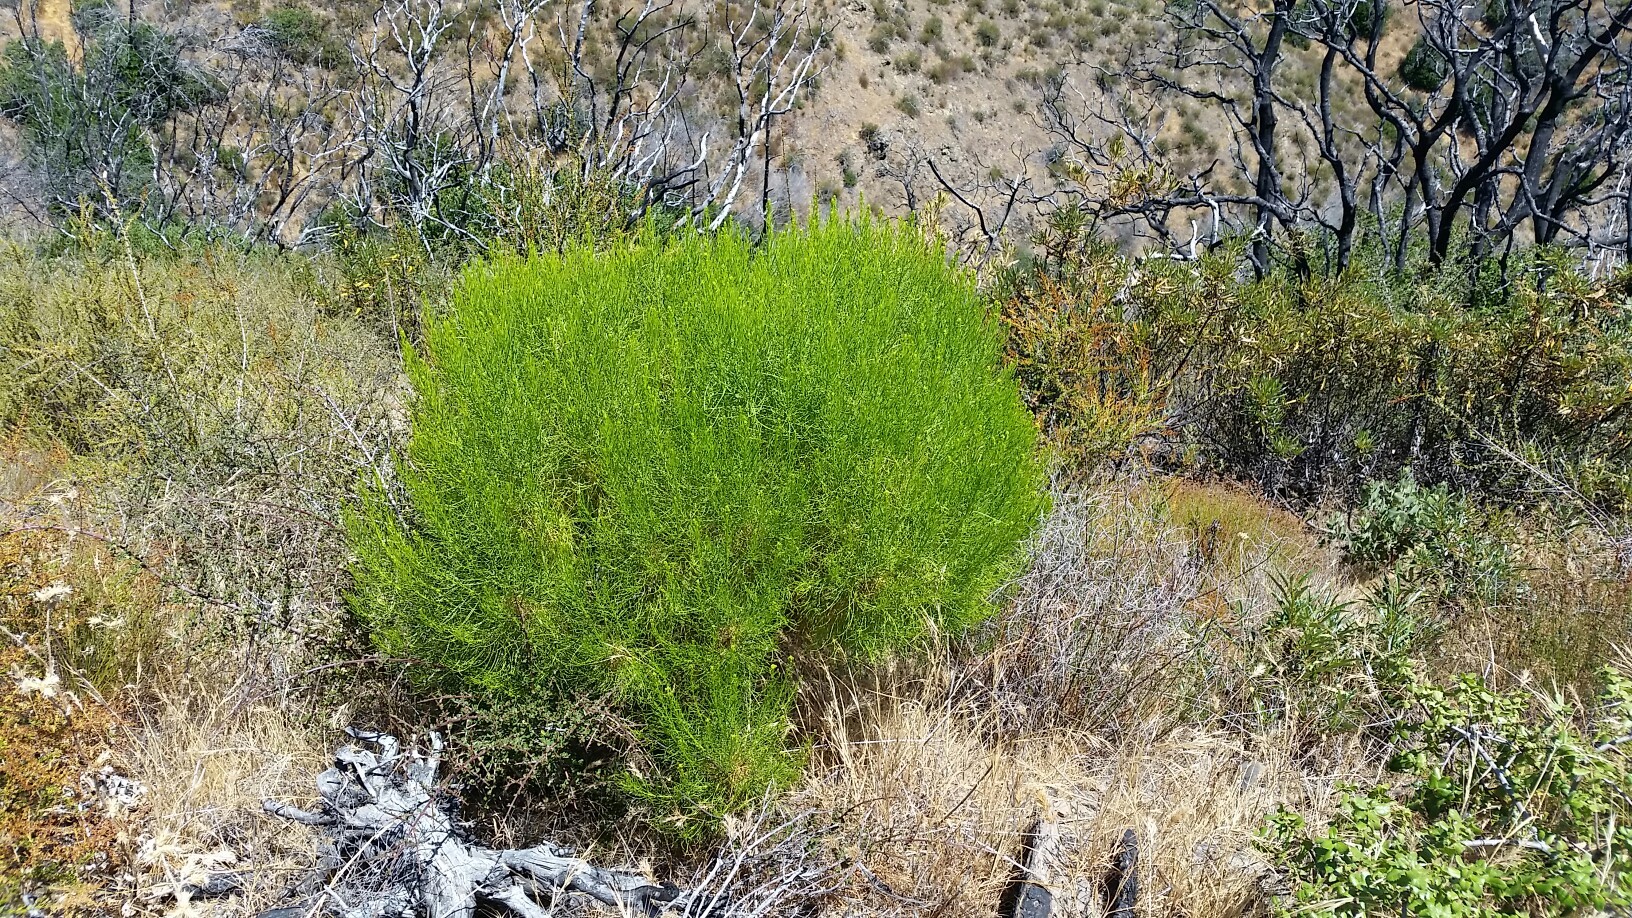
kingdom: Plantae
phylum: Tracheophyta
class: Magnoliopsida
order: Asterales
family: Asteraceae
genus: Ericameria
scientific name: Ericameria arborescens
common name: Goldenfleece
